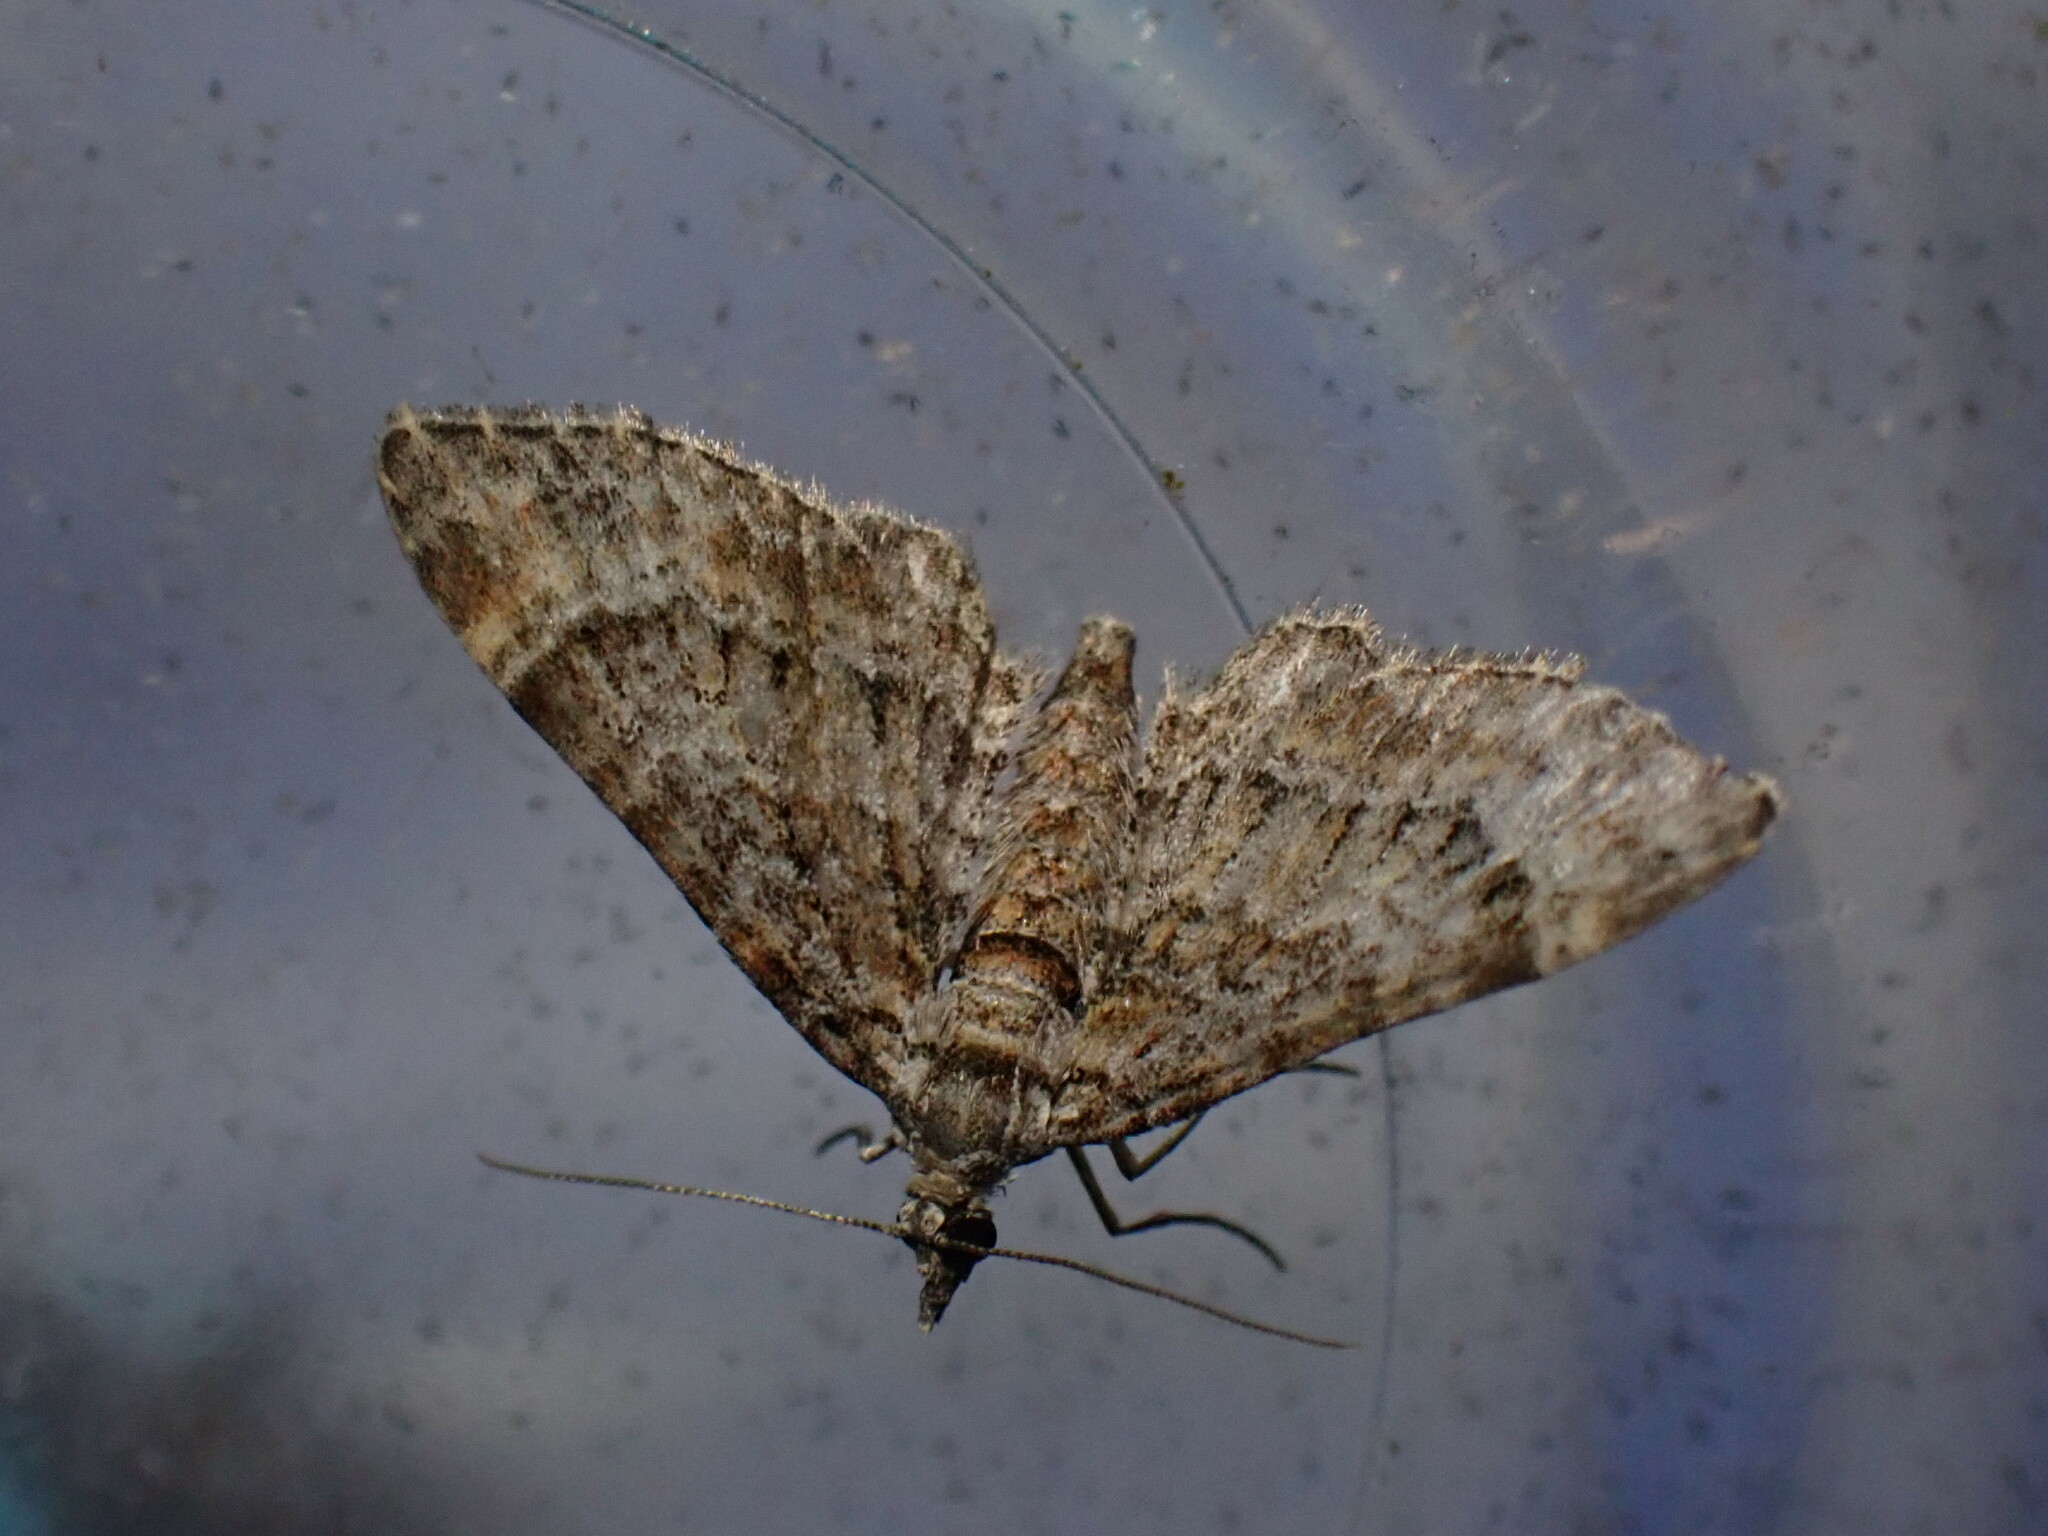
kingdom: Animalia
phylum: Arthropoda
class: Insecta
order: Lepidoptera
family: Geometridae
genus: Gymnoscelis
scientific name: Gymnoscelis rufifasciata
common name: Double-striped pug
